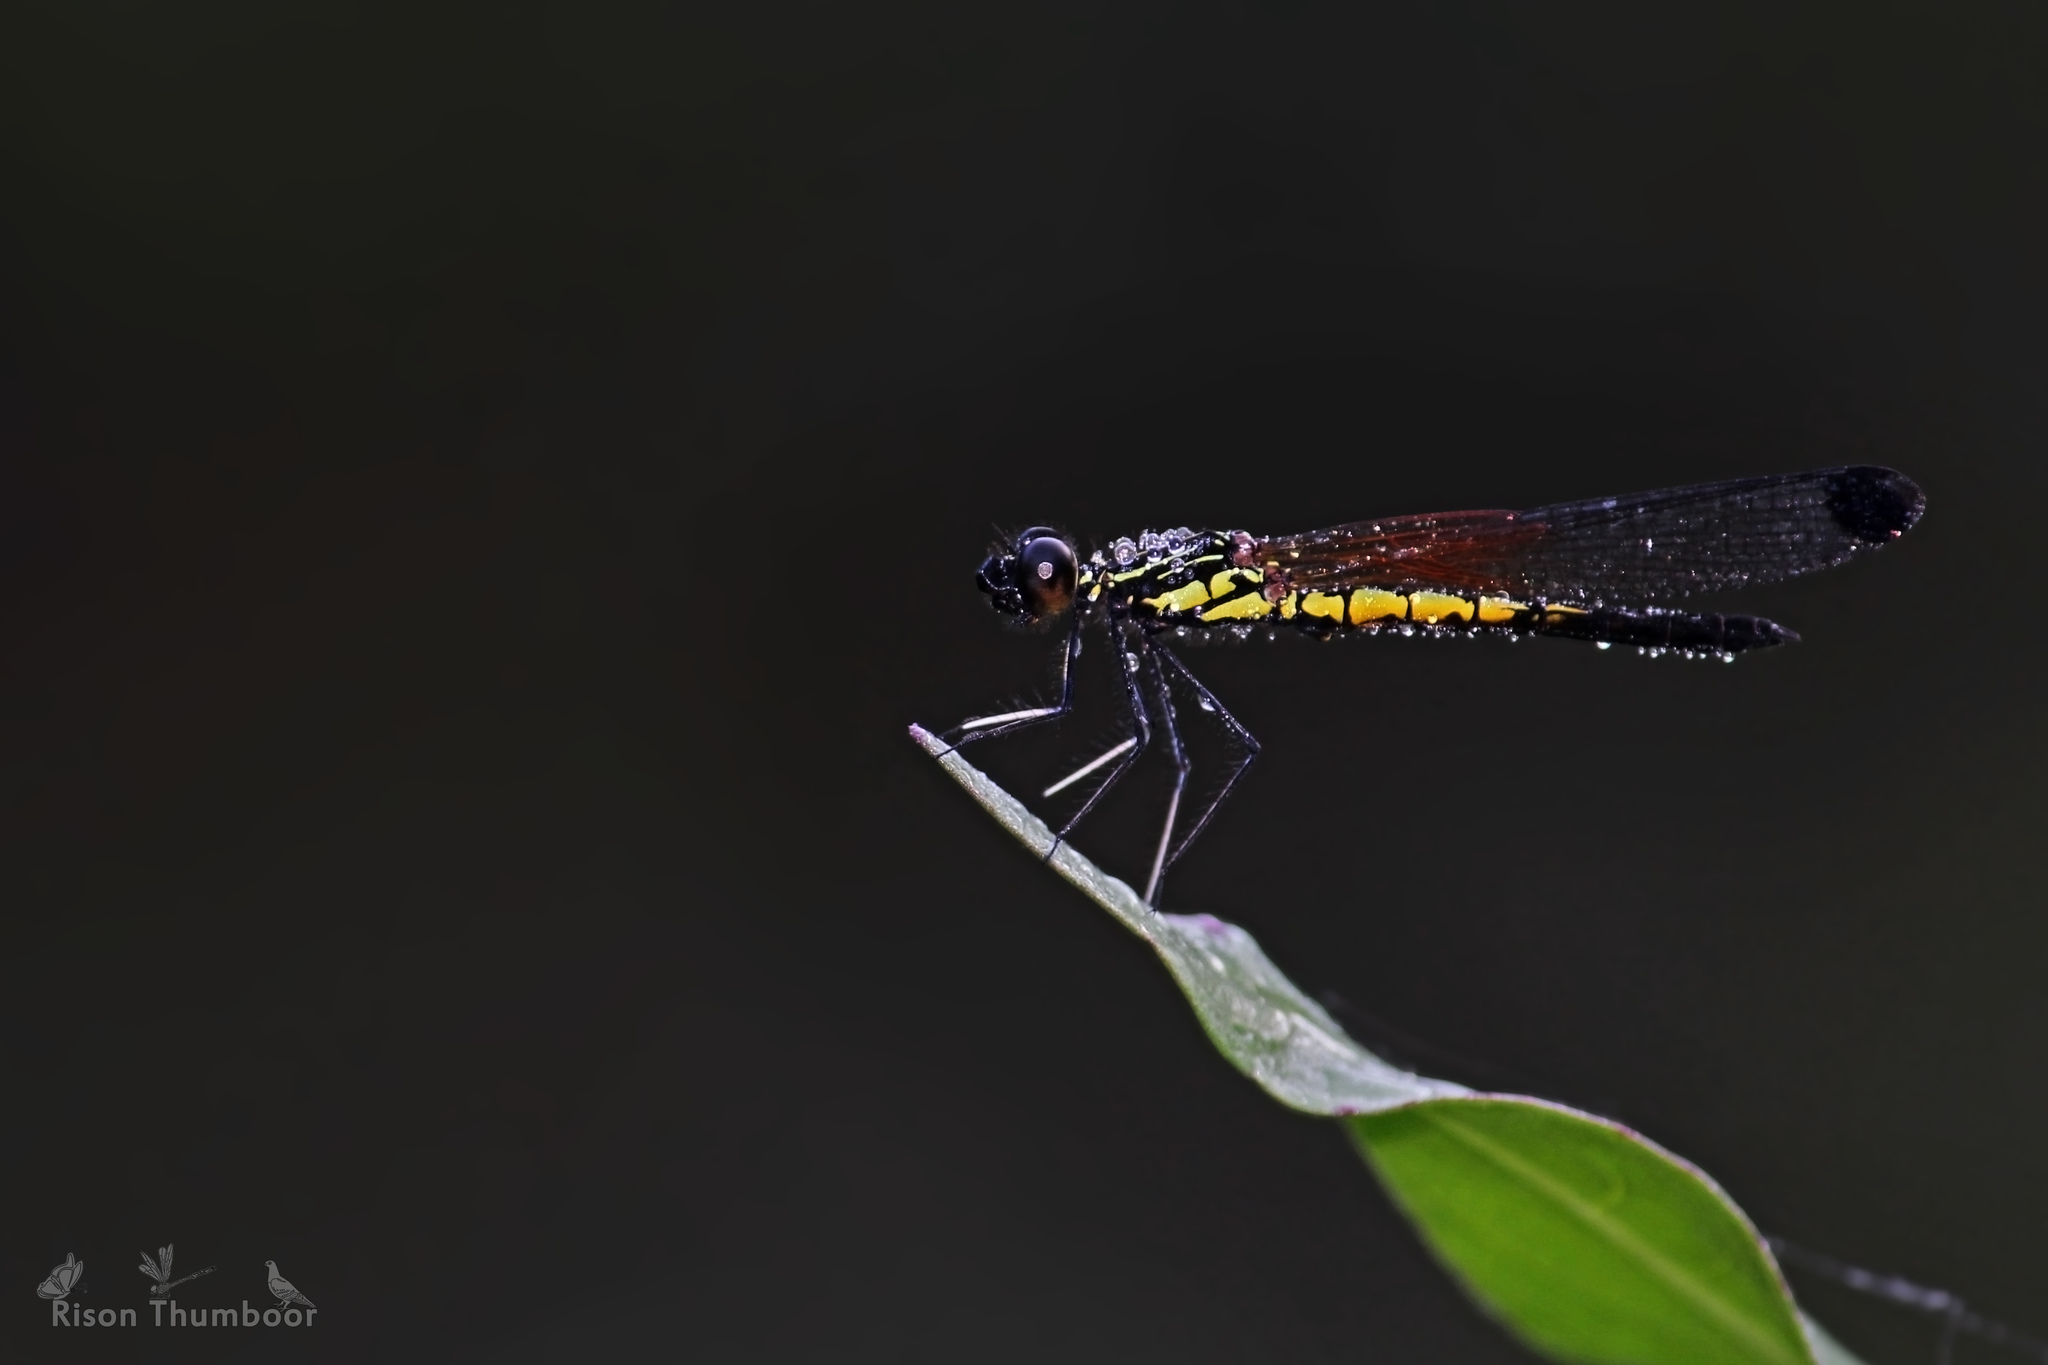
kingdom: Animalia
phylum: Arthropoda
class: Insecta
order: Odonata
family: Chlorocyphidae
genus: Libellago
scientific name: Libellago indica
